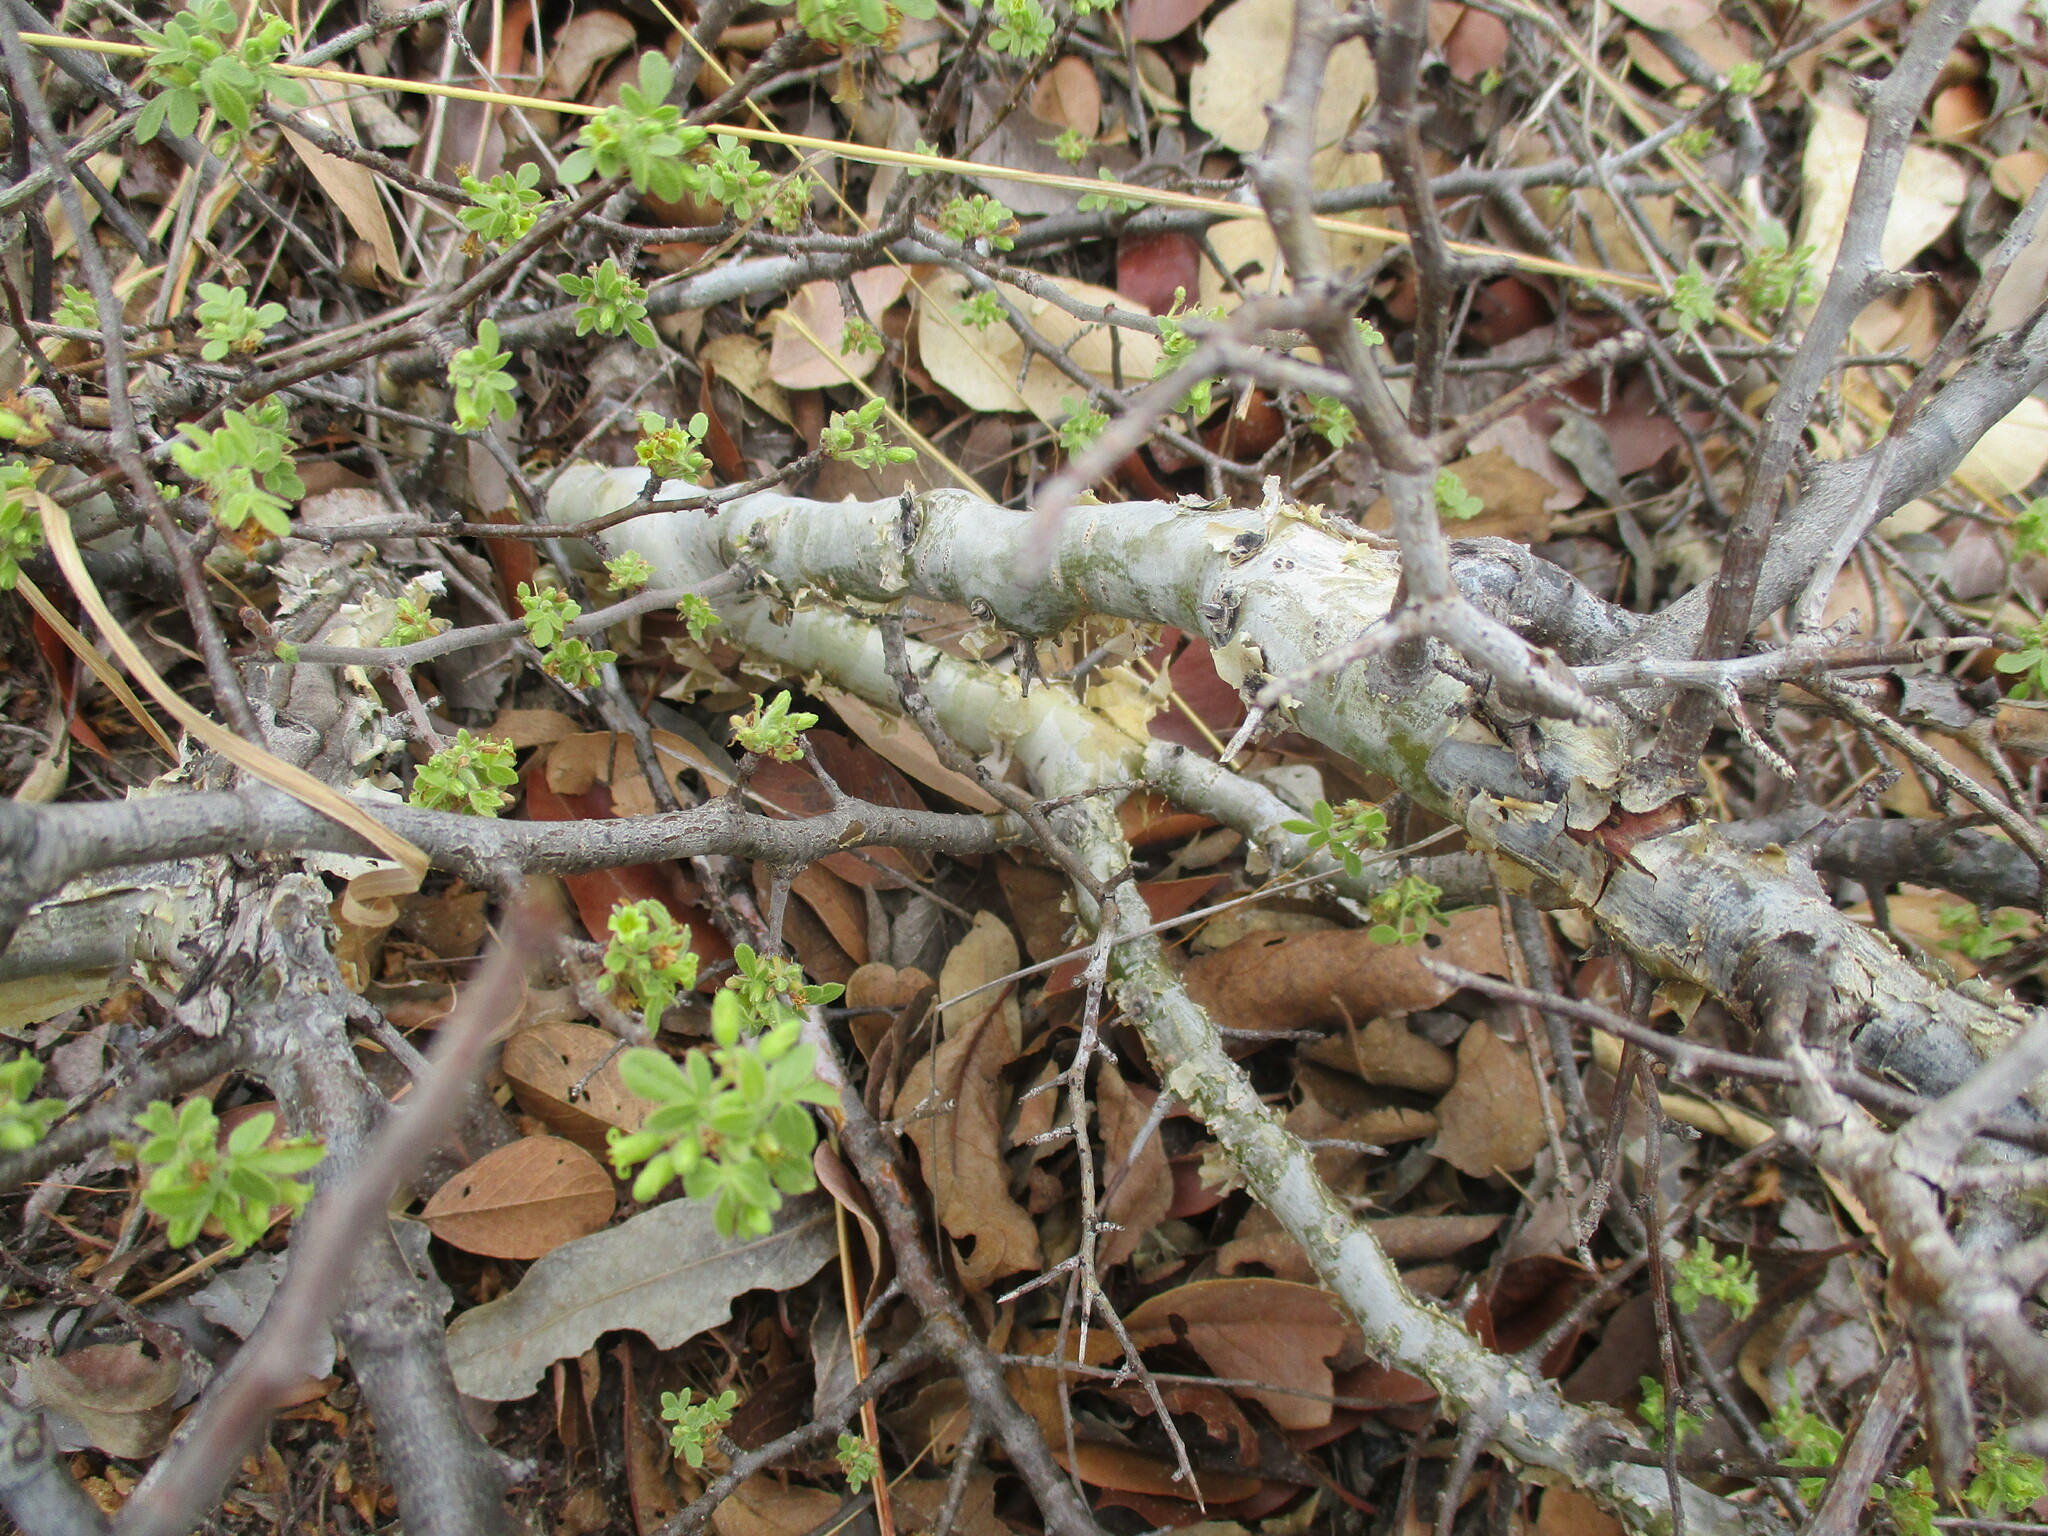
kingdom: Plantae
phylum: Tracheophyta
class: Magnoliopsida
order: Sapindales
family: Burseraceae
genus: Commiphora
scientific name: Commiphora angolensis
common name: Poison-grub
